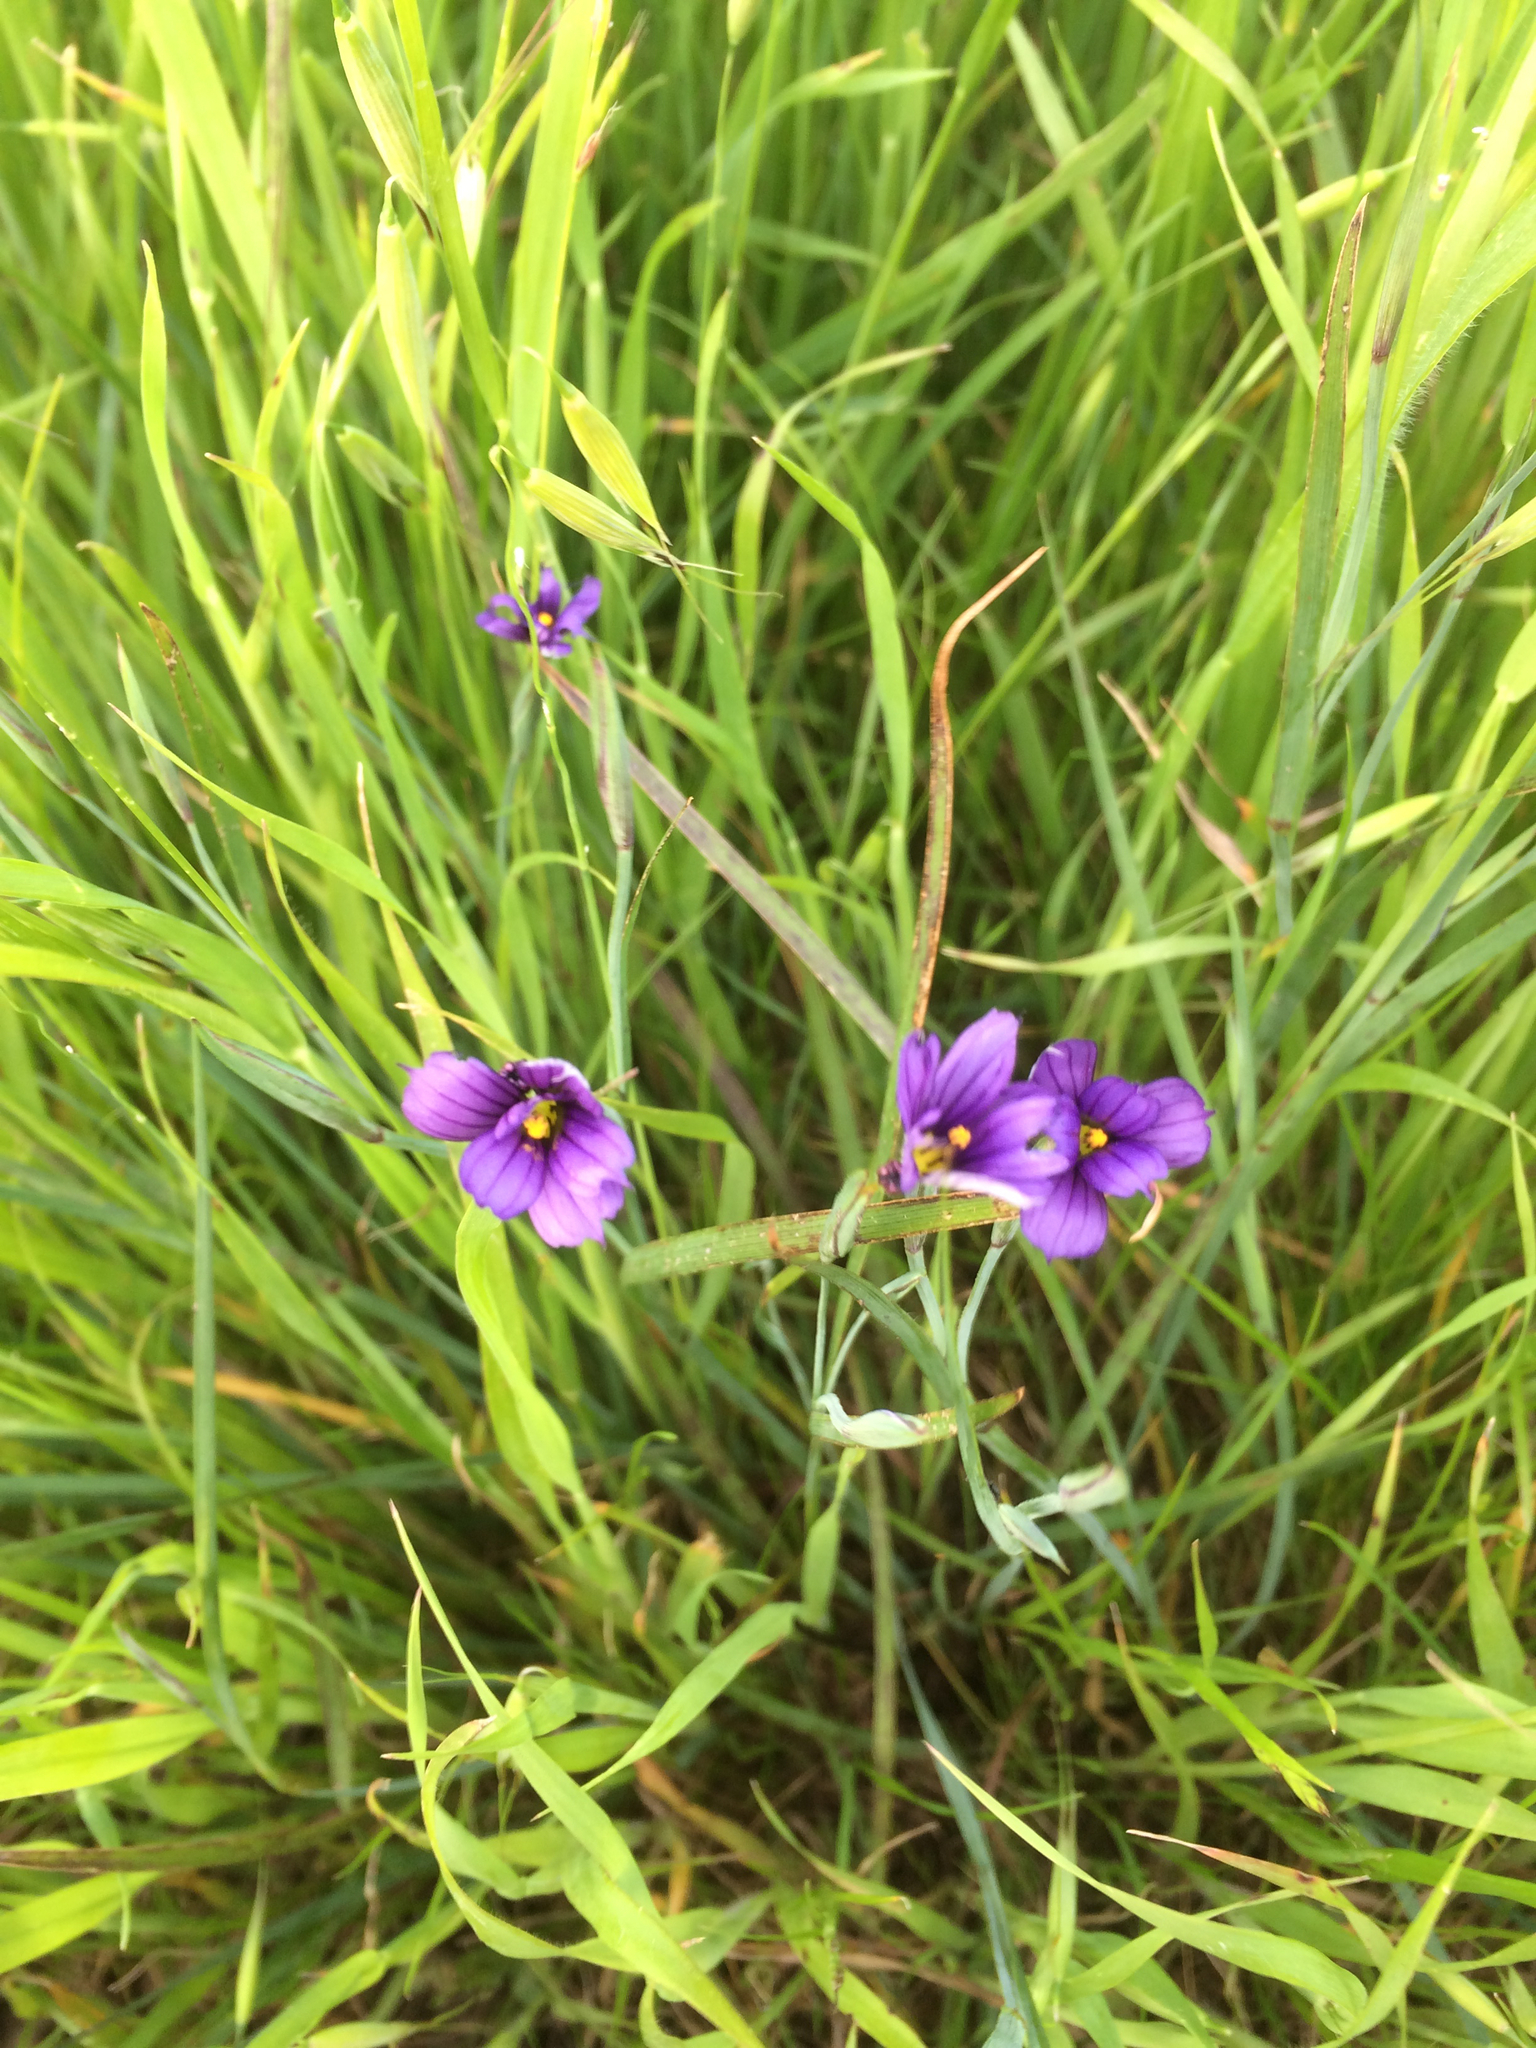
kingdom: Plantae
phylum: Tracheophyta
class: Liliopsida
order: Asparagales
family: Iridaceae
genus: Sisyrinchium
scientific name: Sisyrinchium bellum
